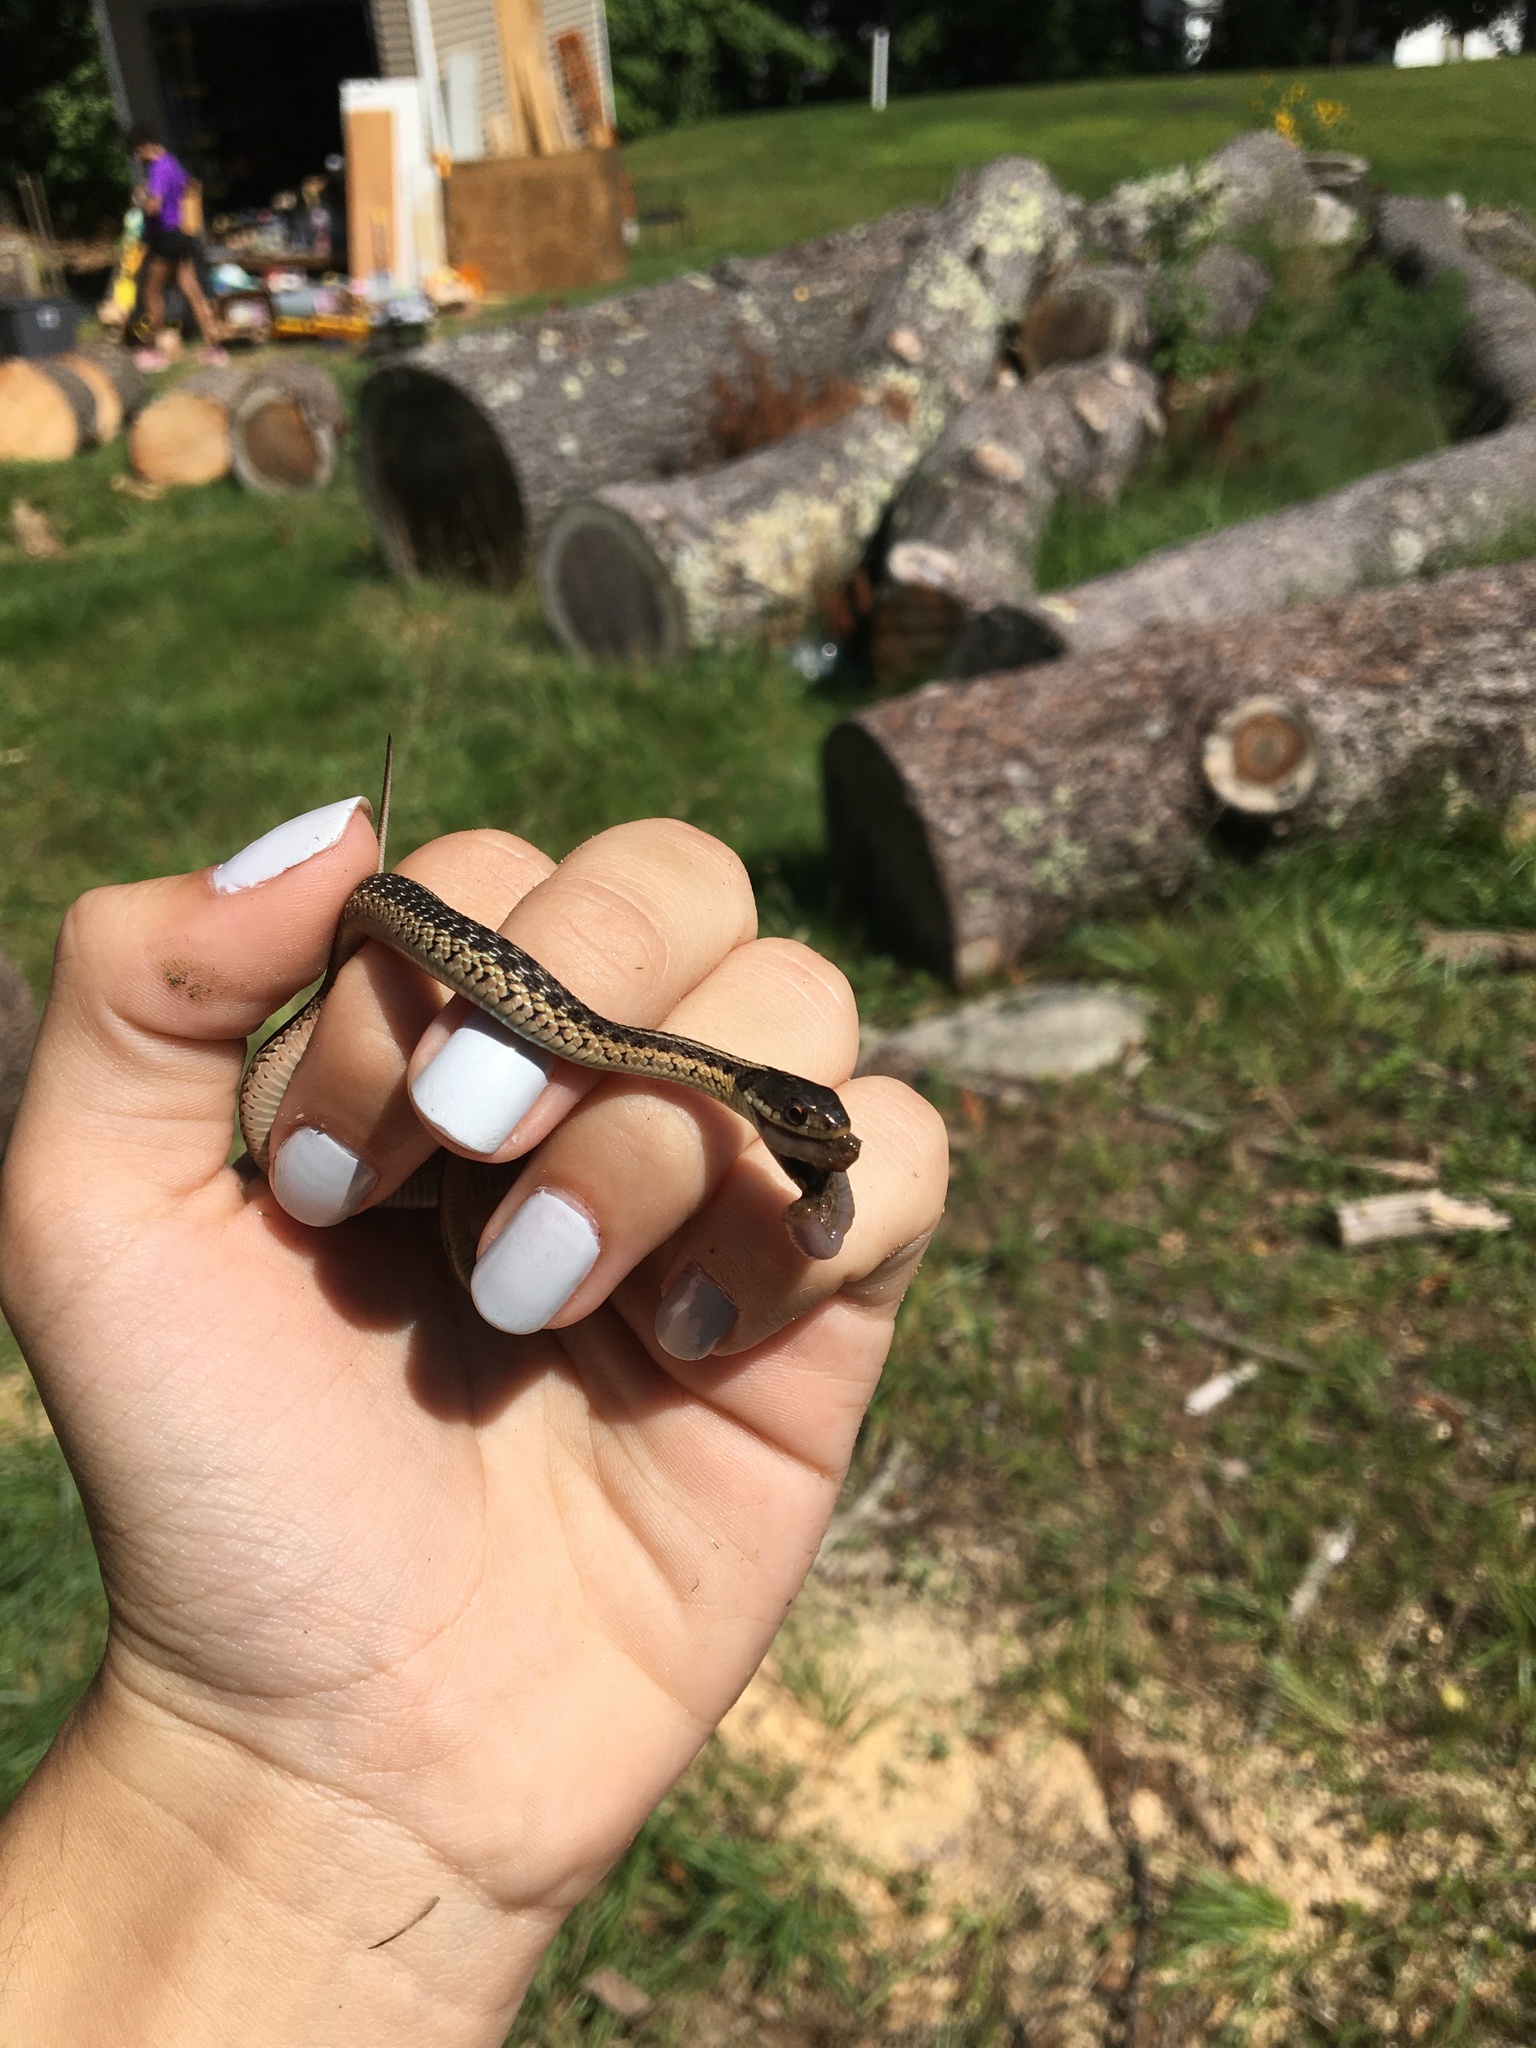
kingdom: Animalia
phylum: Chordata
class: Squamata
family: Colubridae
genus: Thamnophis
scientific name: Thamnophis sirtalis
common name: Common garter snake
